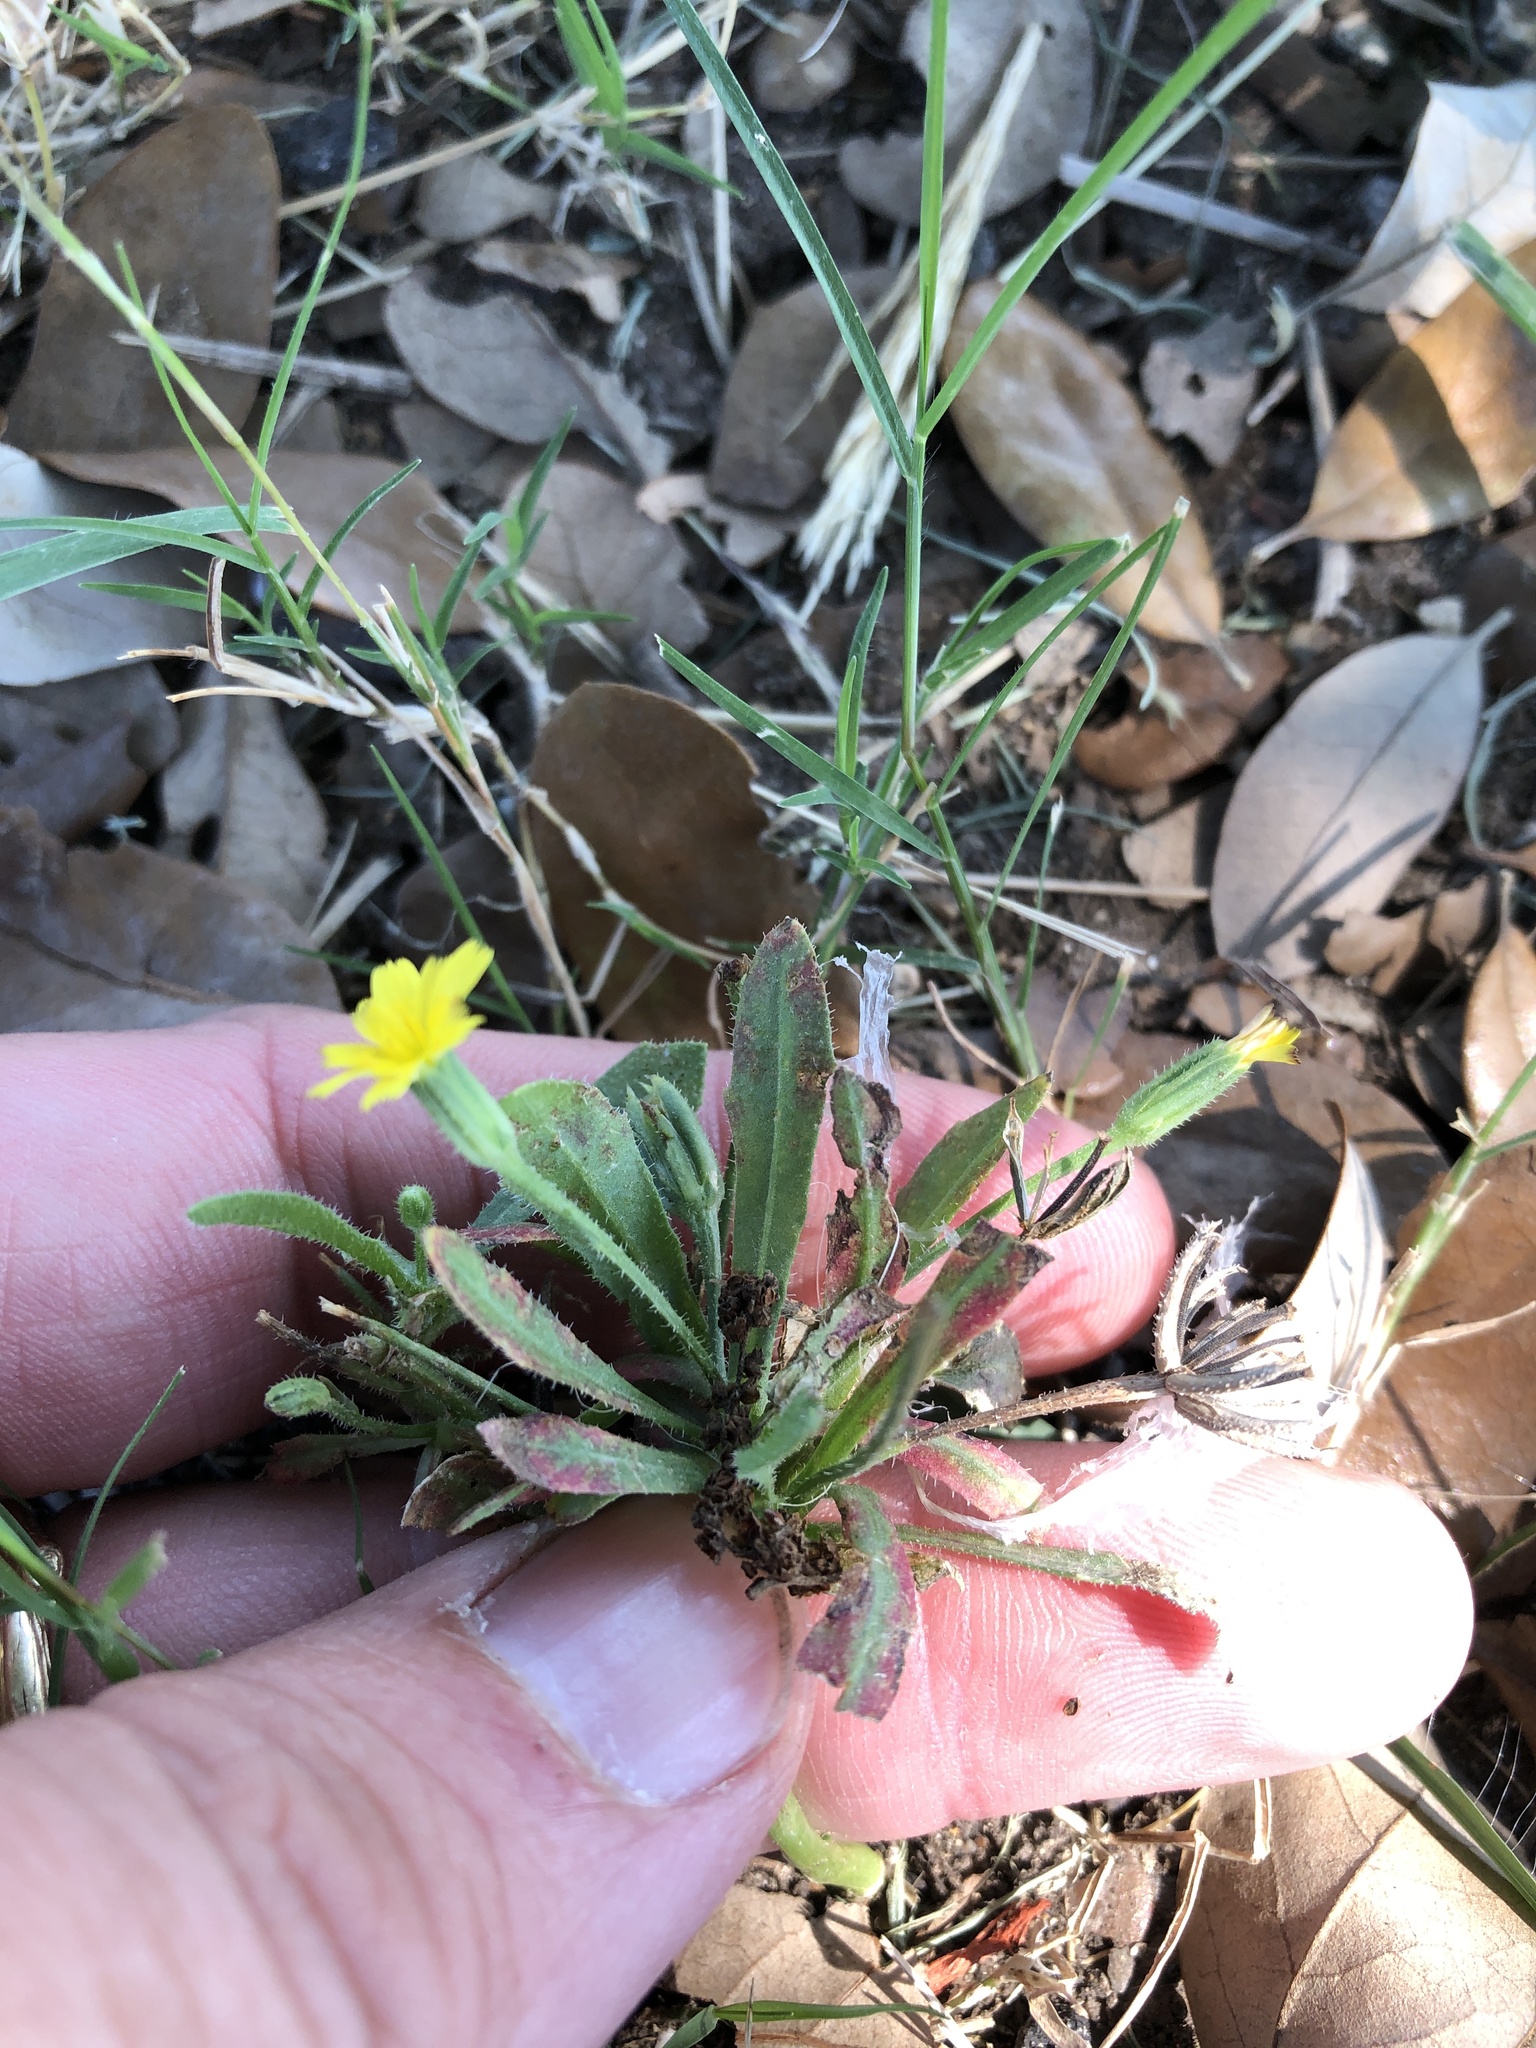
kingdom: Plantae
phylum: Tracheophyta
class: Magnoliopsida
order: Asterales
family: Asteraceae
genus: Hedypnois
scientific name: Hedypnois rhagadioloides
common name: Cretan weed
